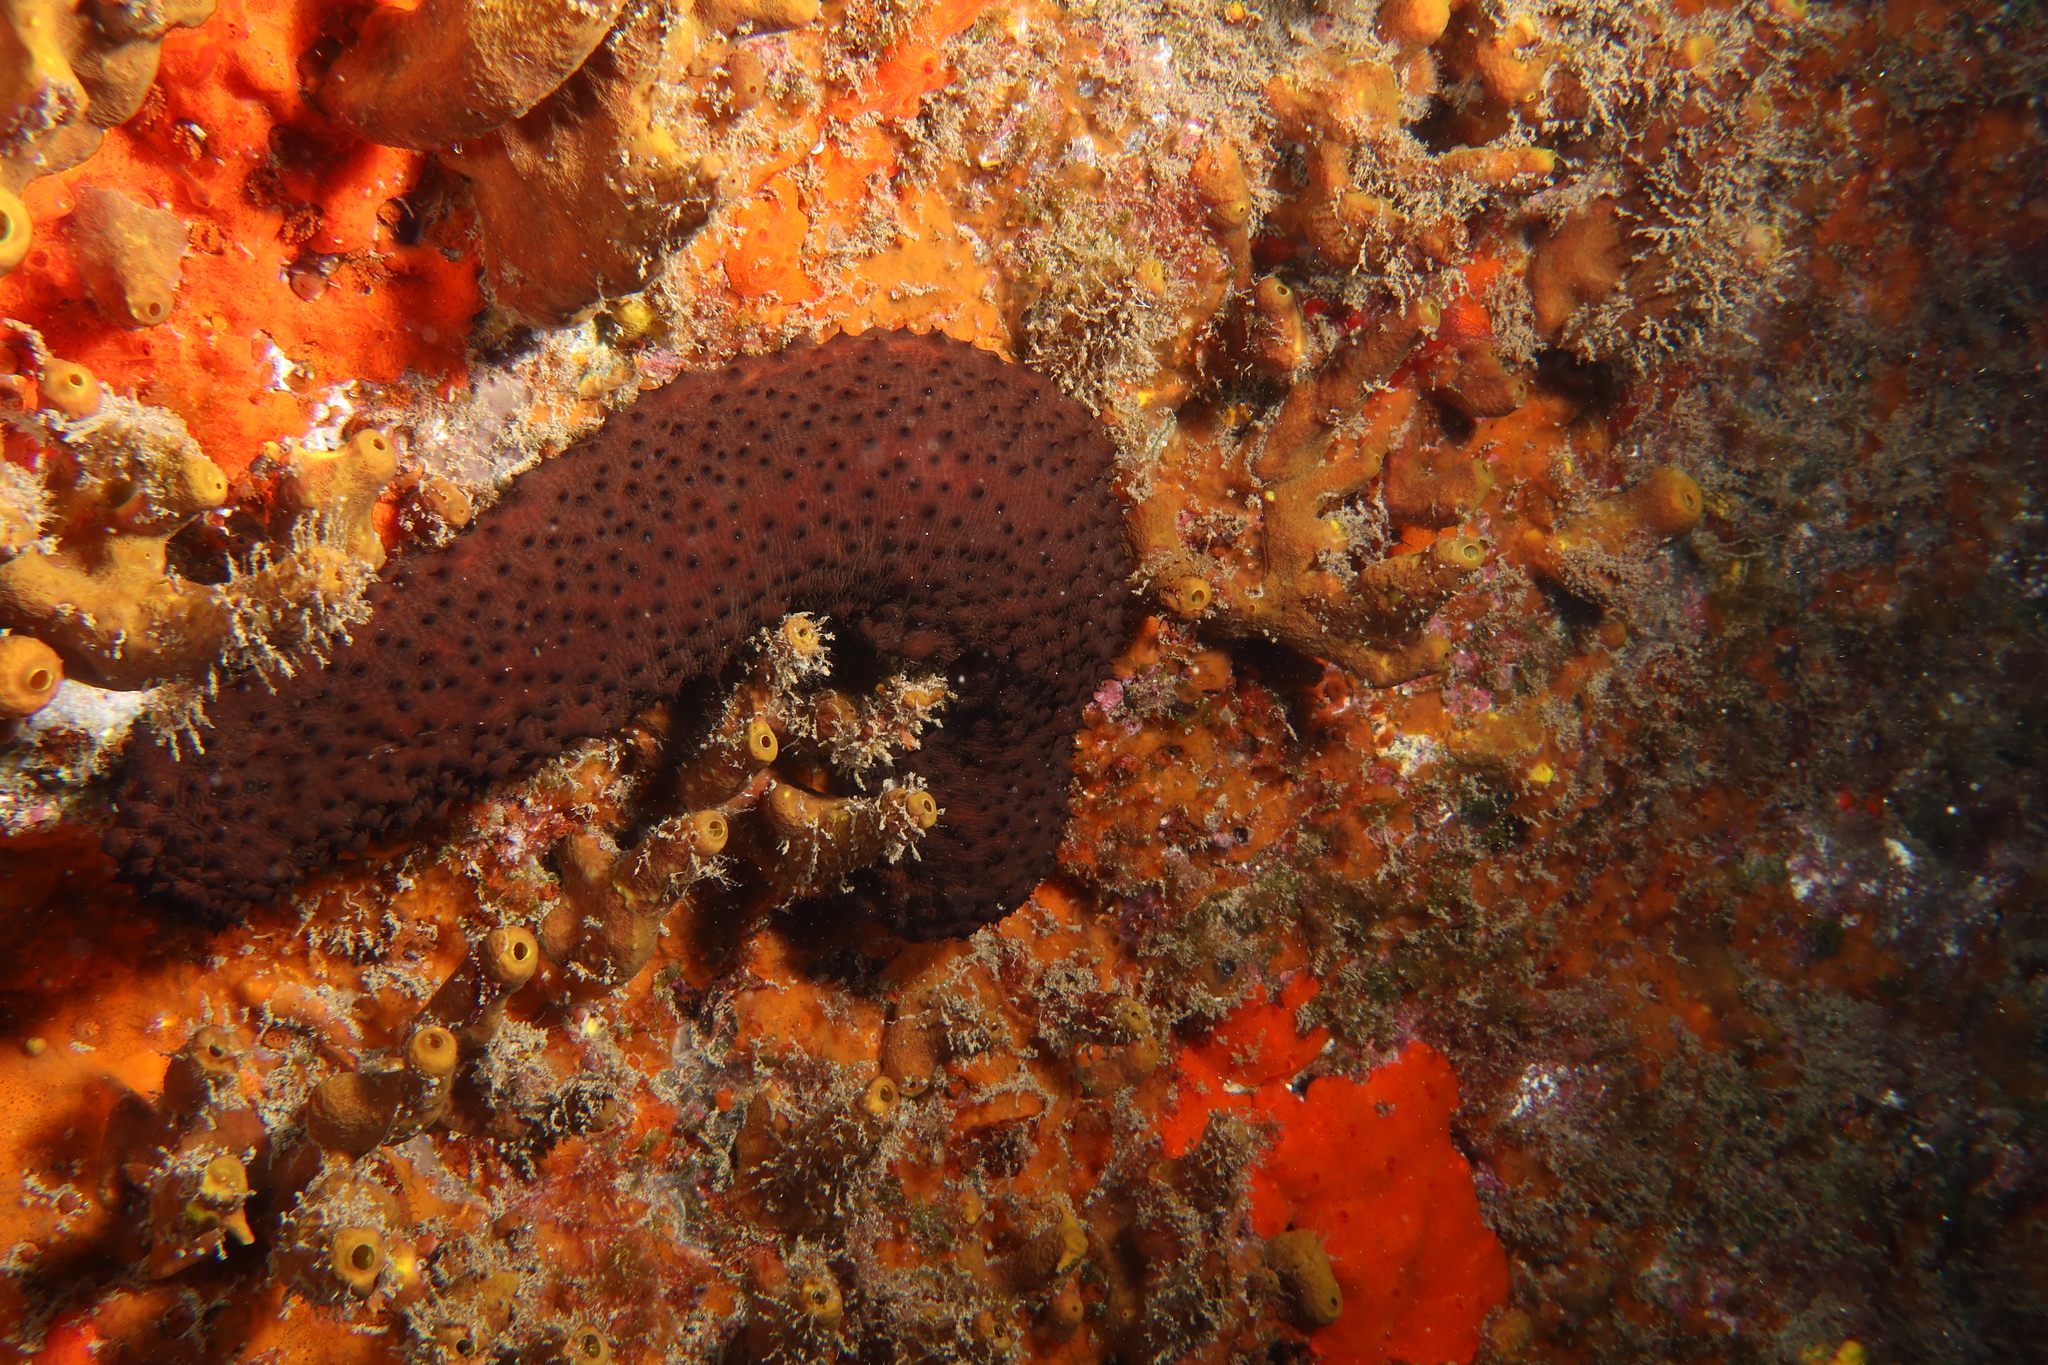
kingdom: Animalia
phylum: Echinodermata
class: Holothuroidea
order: Holothuriida
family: Holothuriidae
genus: Holothuria
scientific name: Holothuria sanctori
